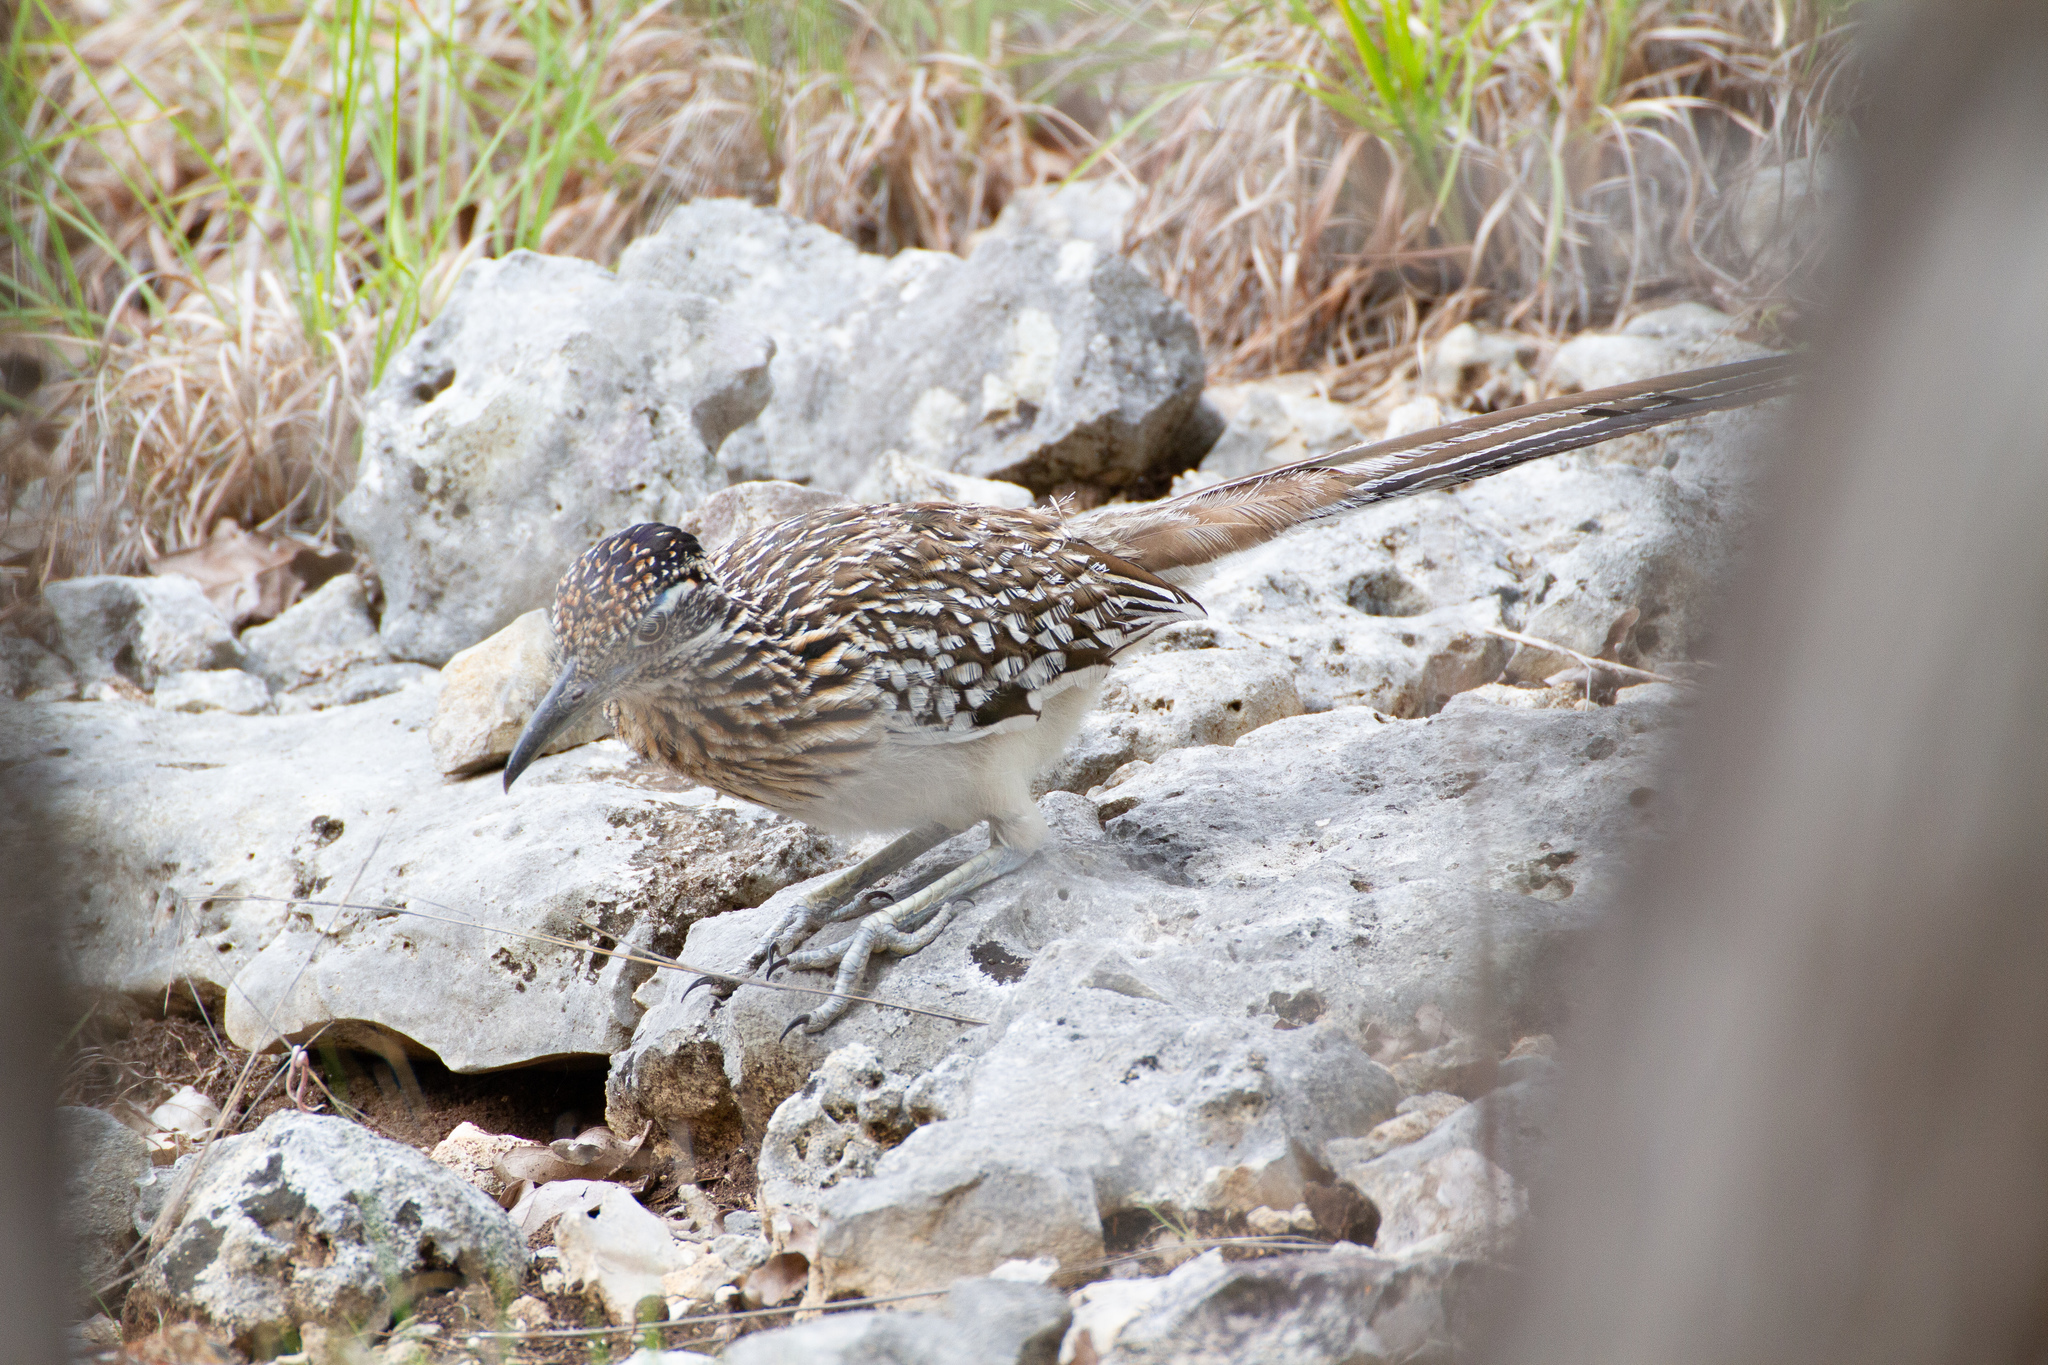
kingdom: Animalia
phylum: Chordata
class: Aves
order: Cuculiformes
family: Cuculidae
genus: Geococcyx
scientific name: Geococcyx californianus
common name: Greater roadrunner
